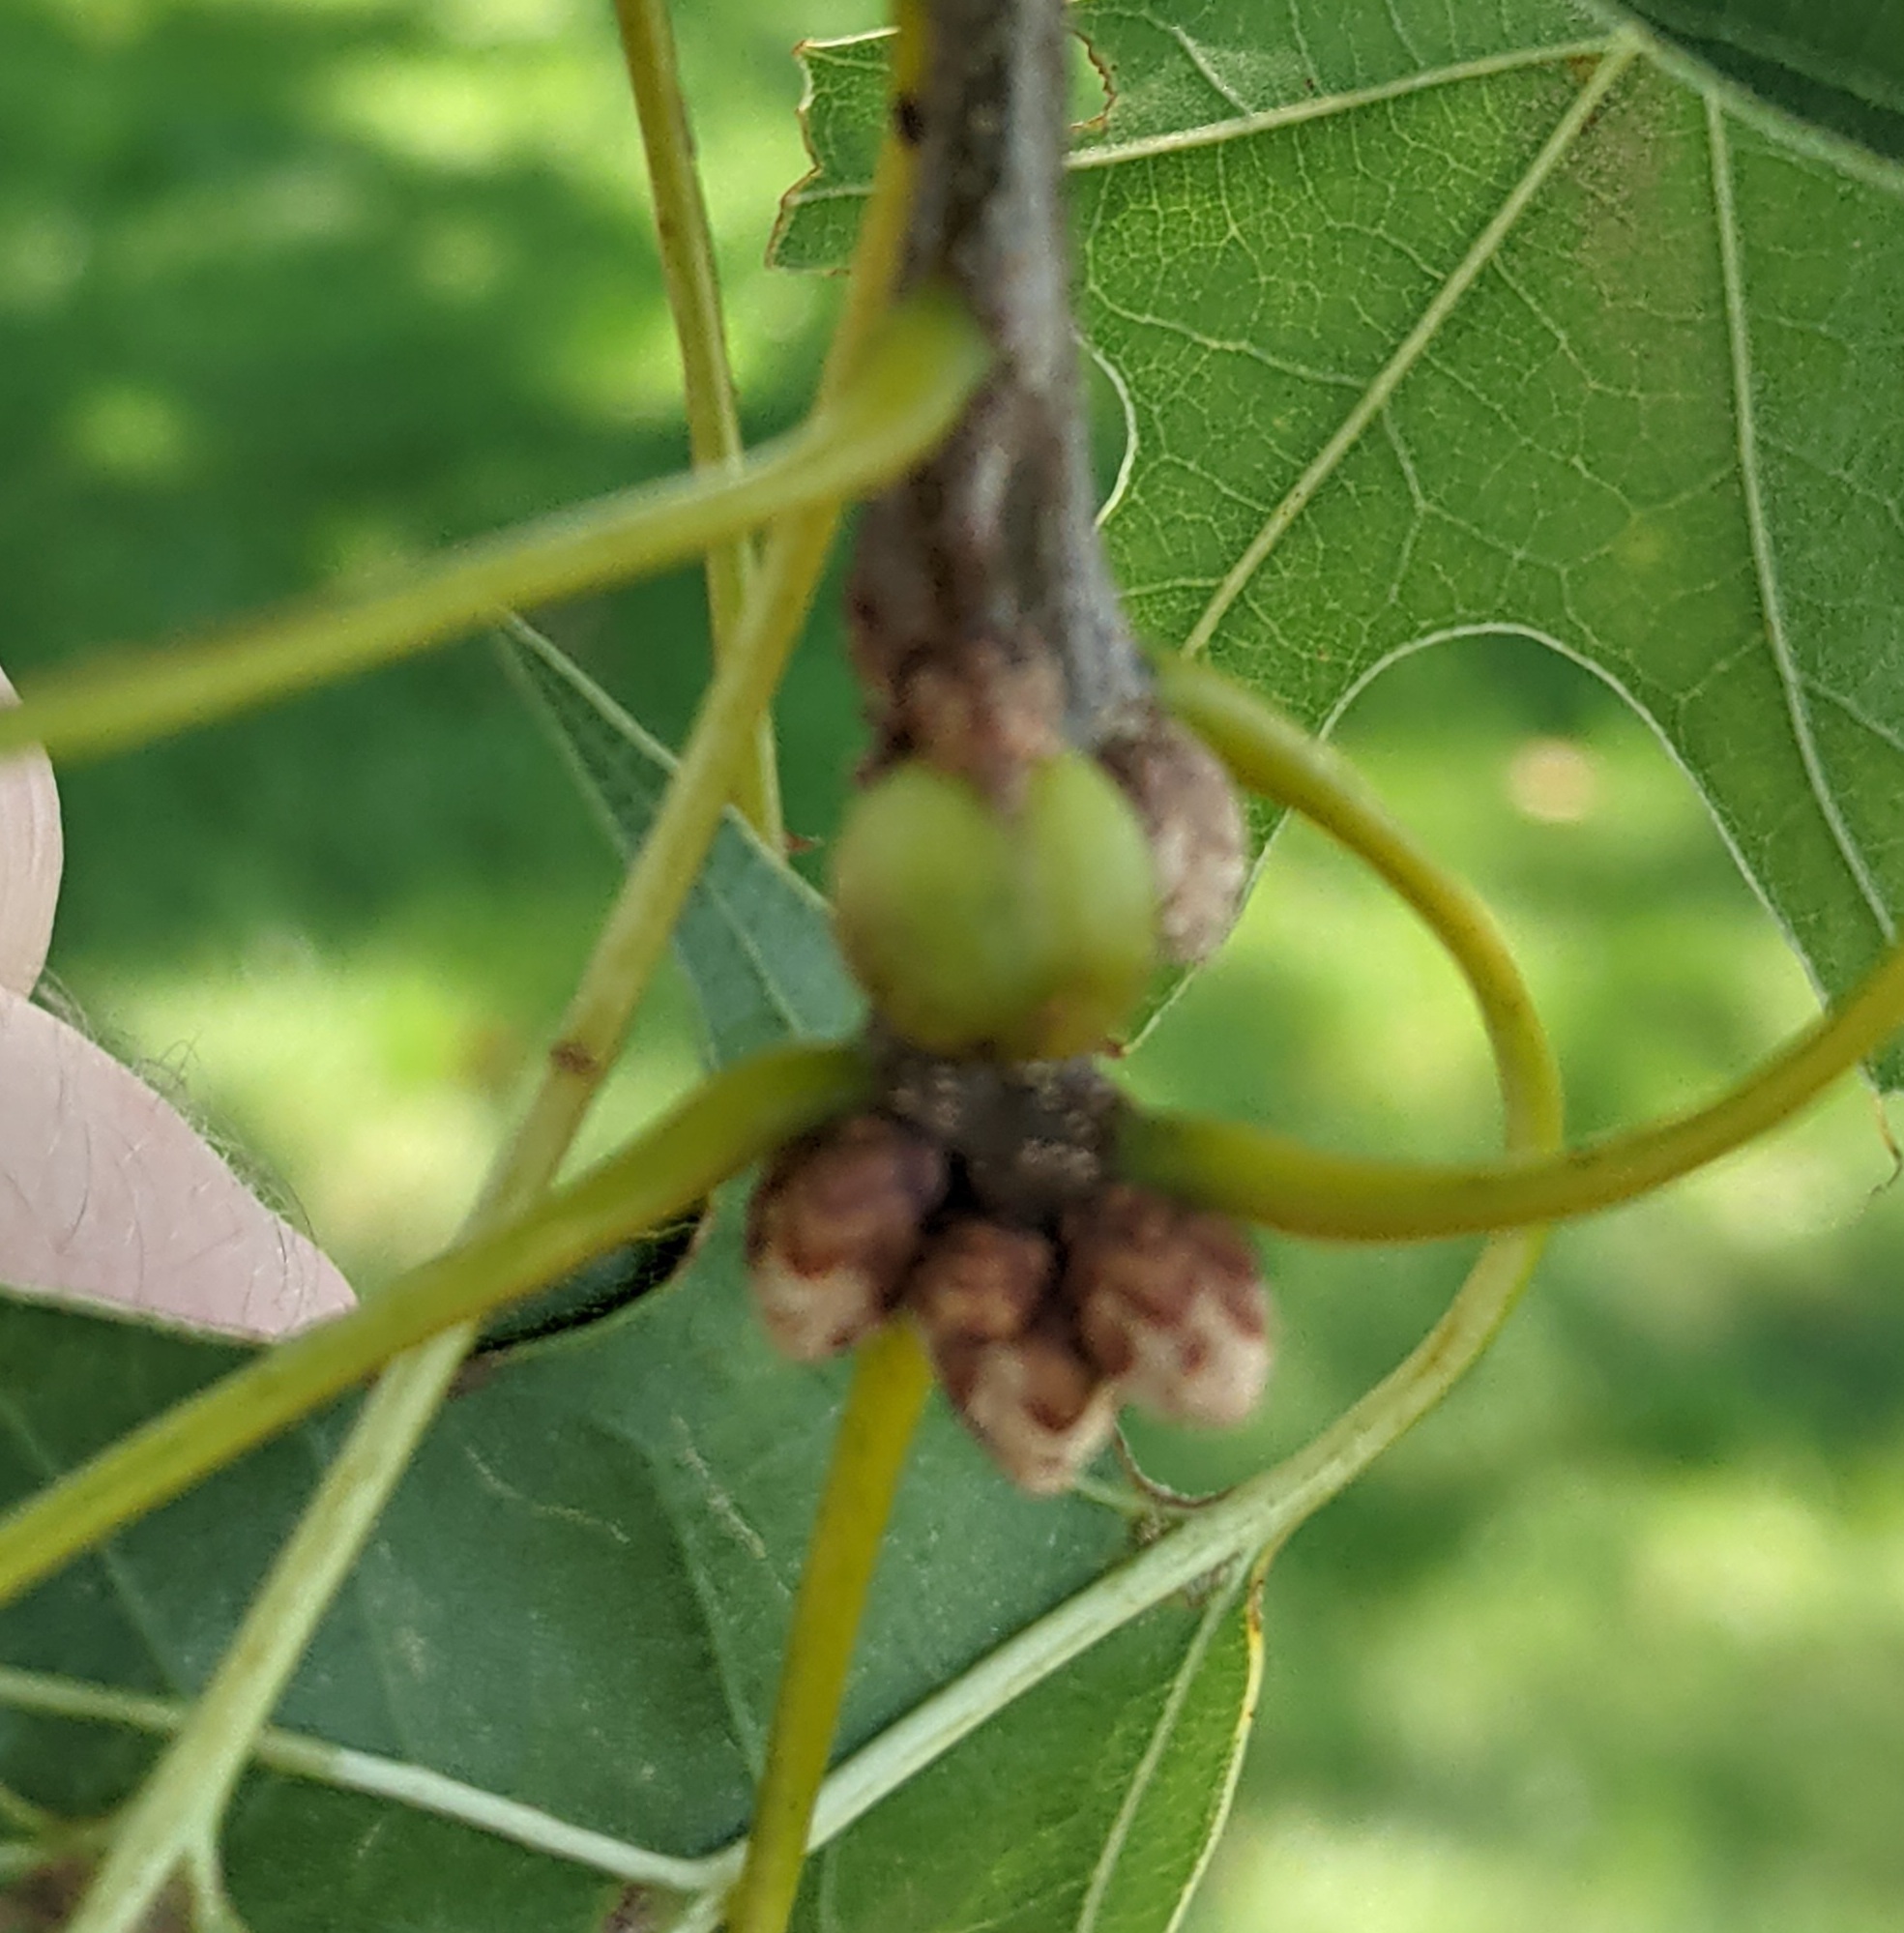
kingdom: Animalia
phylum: Arthropoda
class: Insecta
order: Hymenoptera
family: Cynipidae
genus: Callirhytis
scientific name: Callirhytis
